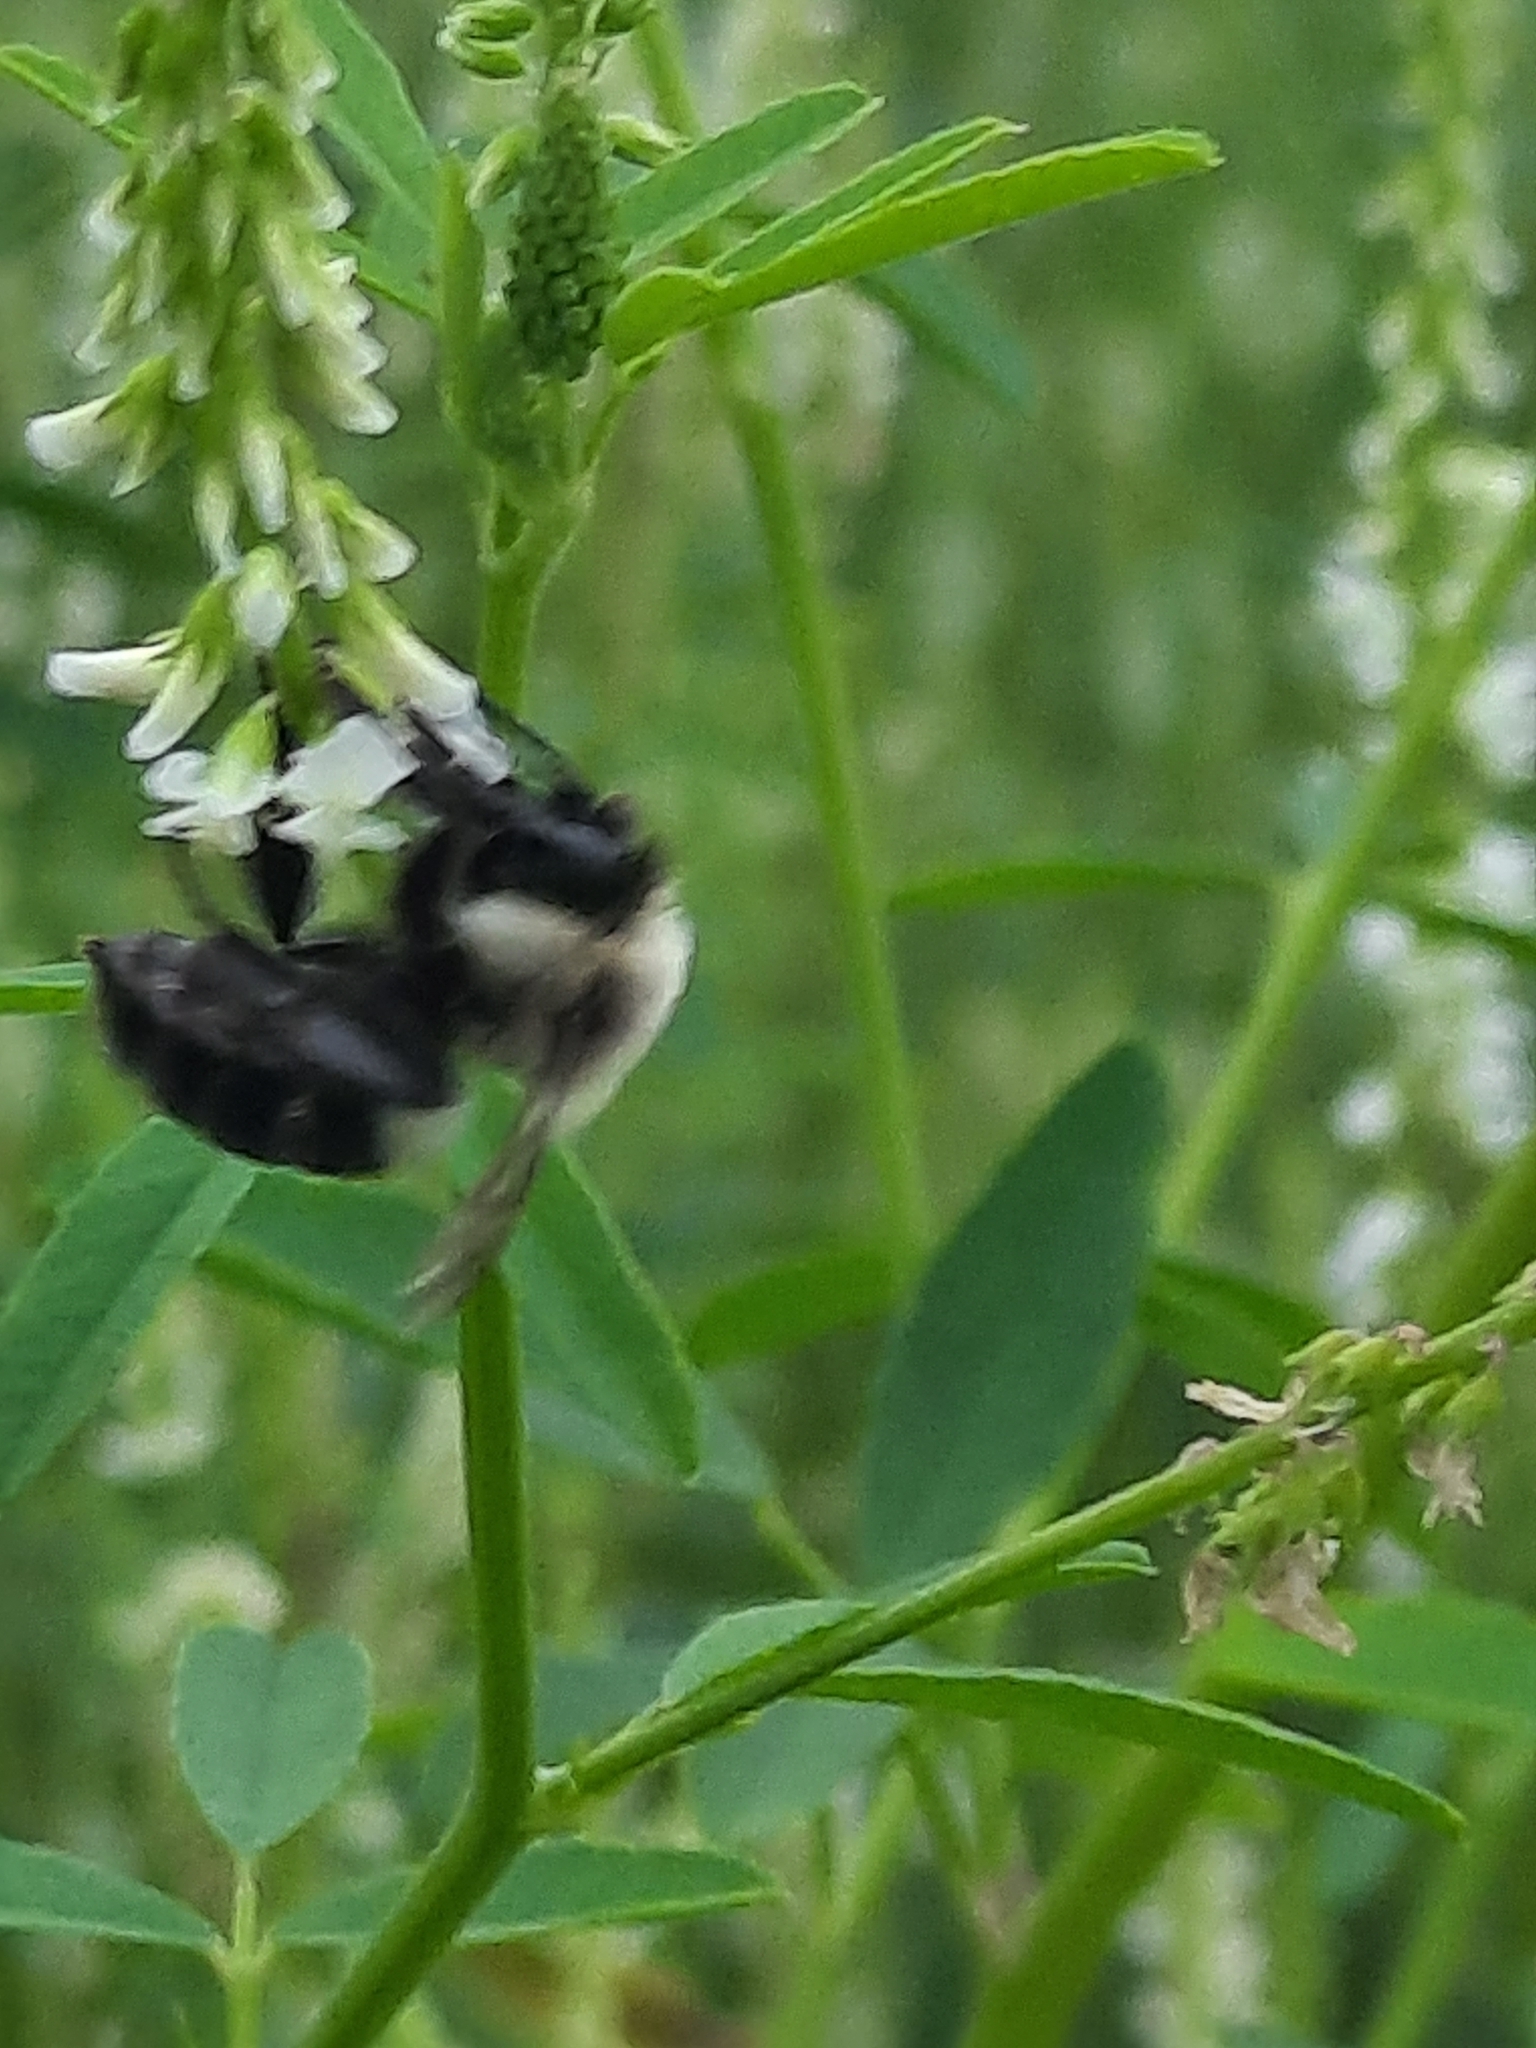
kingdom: Animalia
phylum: Arthropoda
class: Insecta
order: Hymenoptera
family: Apidae
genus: Bombus
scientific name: Bombus impatiens
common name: Common eastern bumble bee
